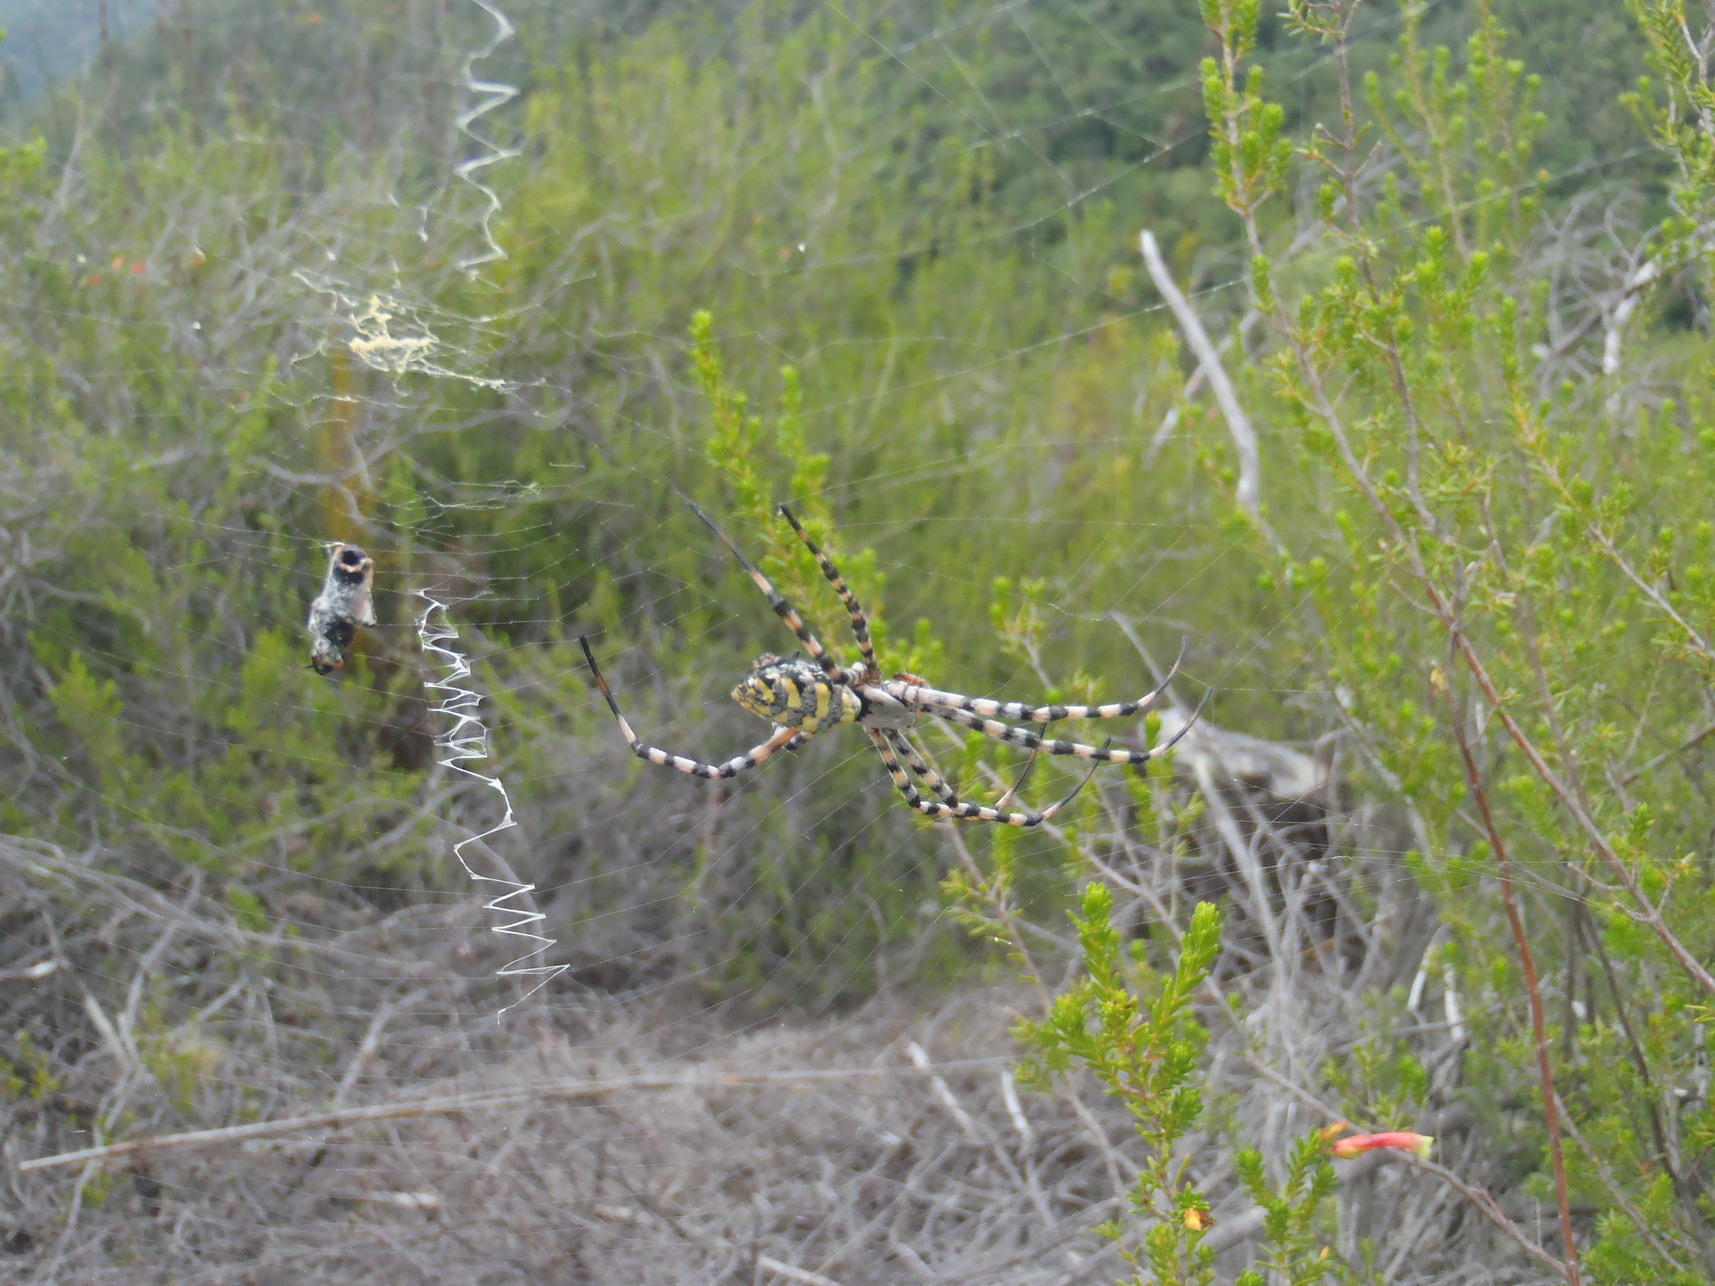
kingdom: Animalia
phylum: Arthropoda
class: Arachnida
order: Araneae
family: Araneidae
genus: Argiope
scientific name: Argiope australis
